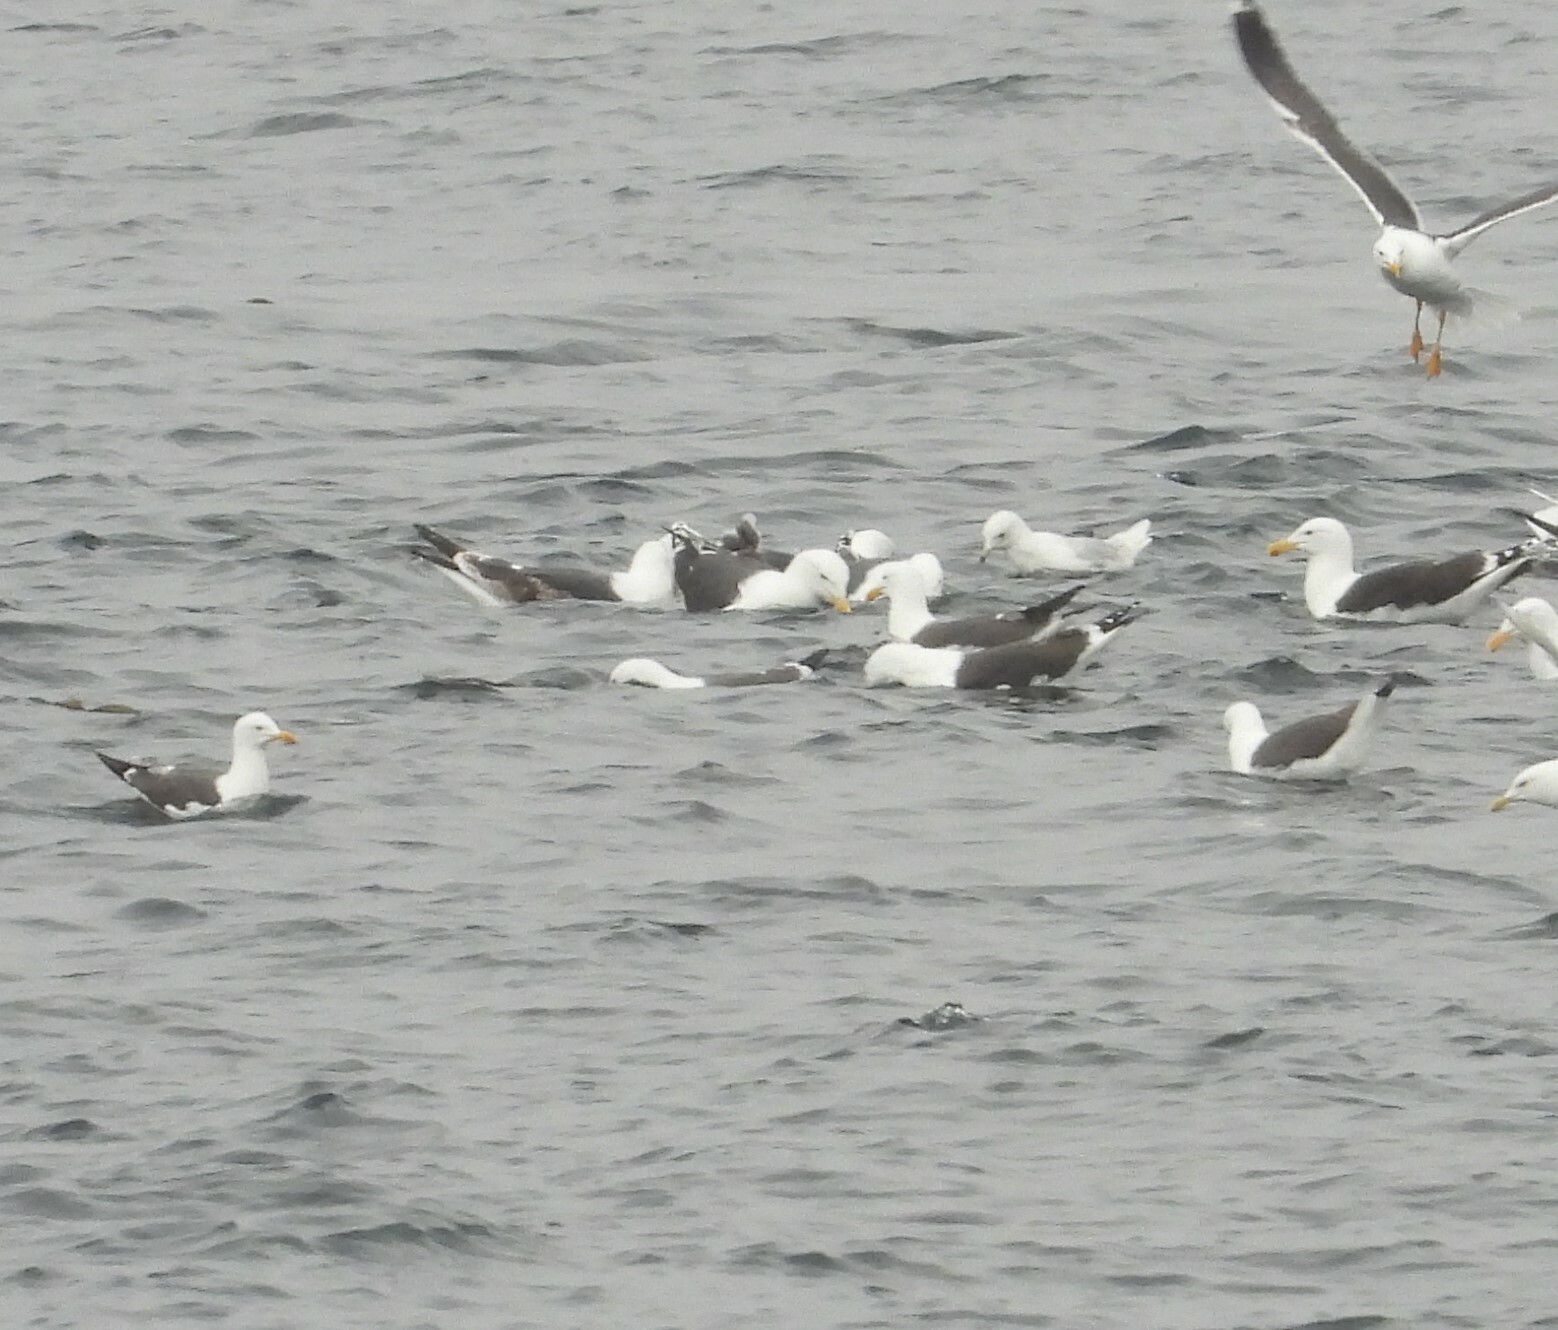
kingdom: Animalia
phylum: Chordata
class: Aves
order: Charadriiformes
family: Laridae
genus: Larus
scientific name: Larus marinus
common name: Great black-backed gull
